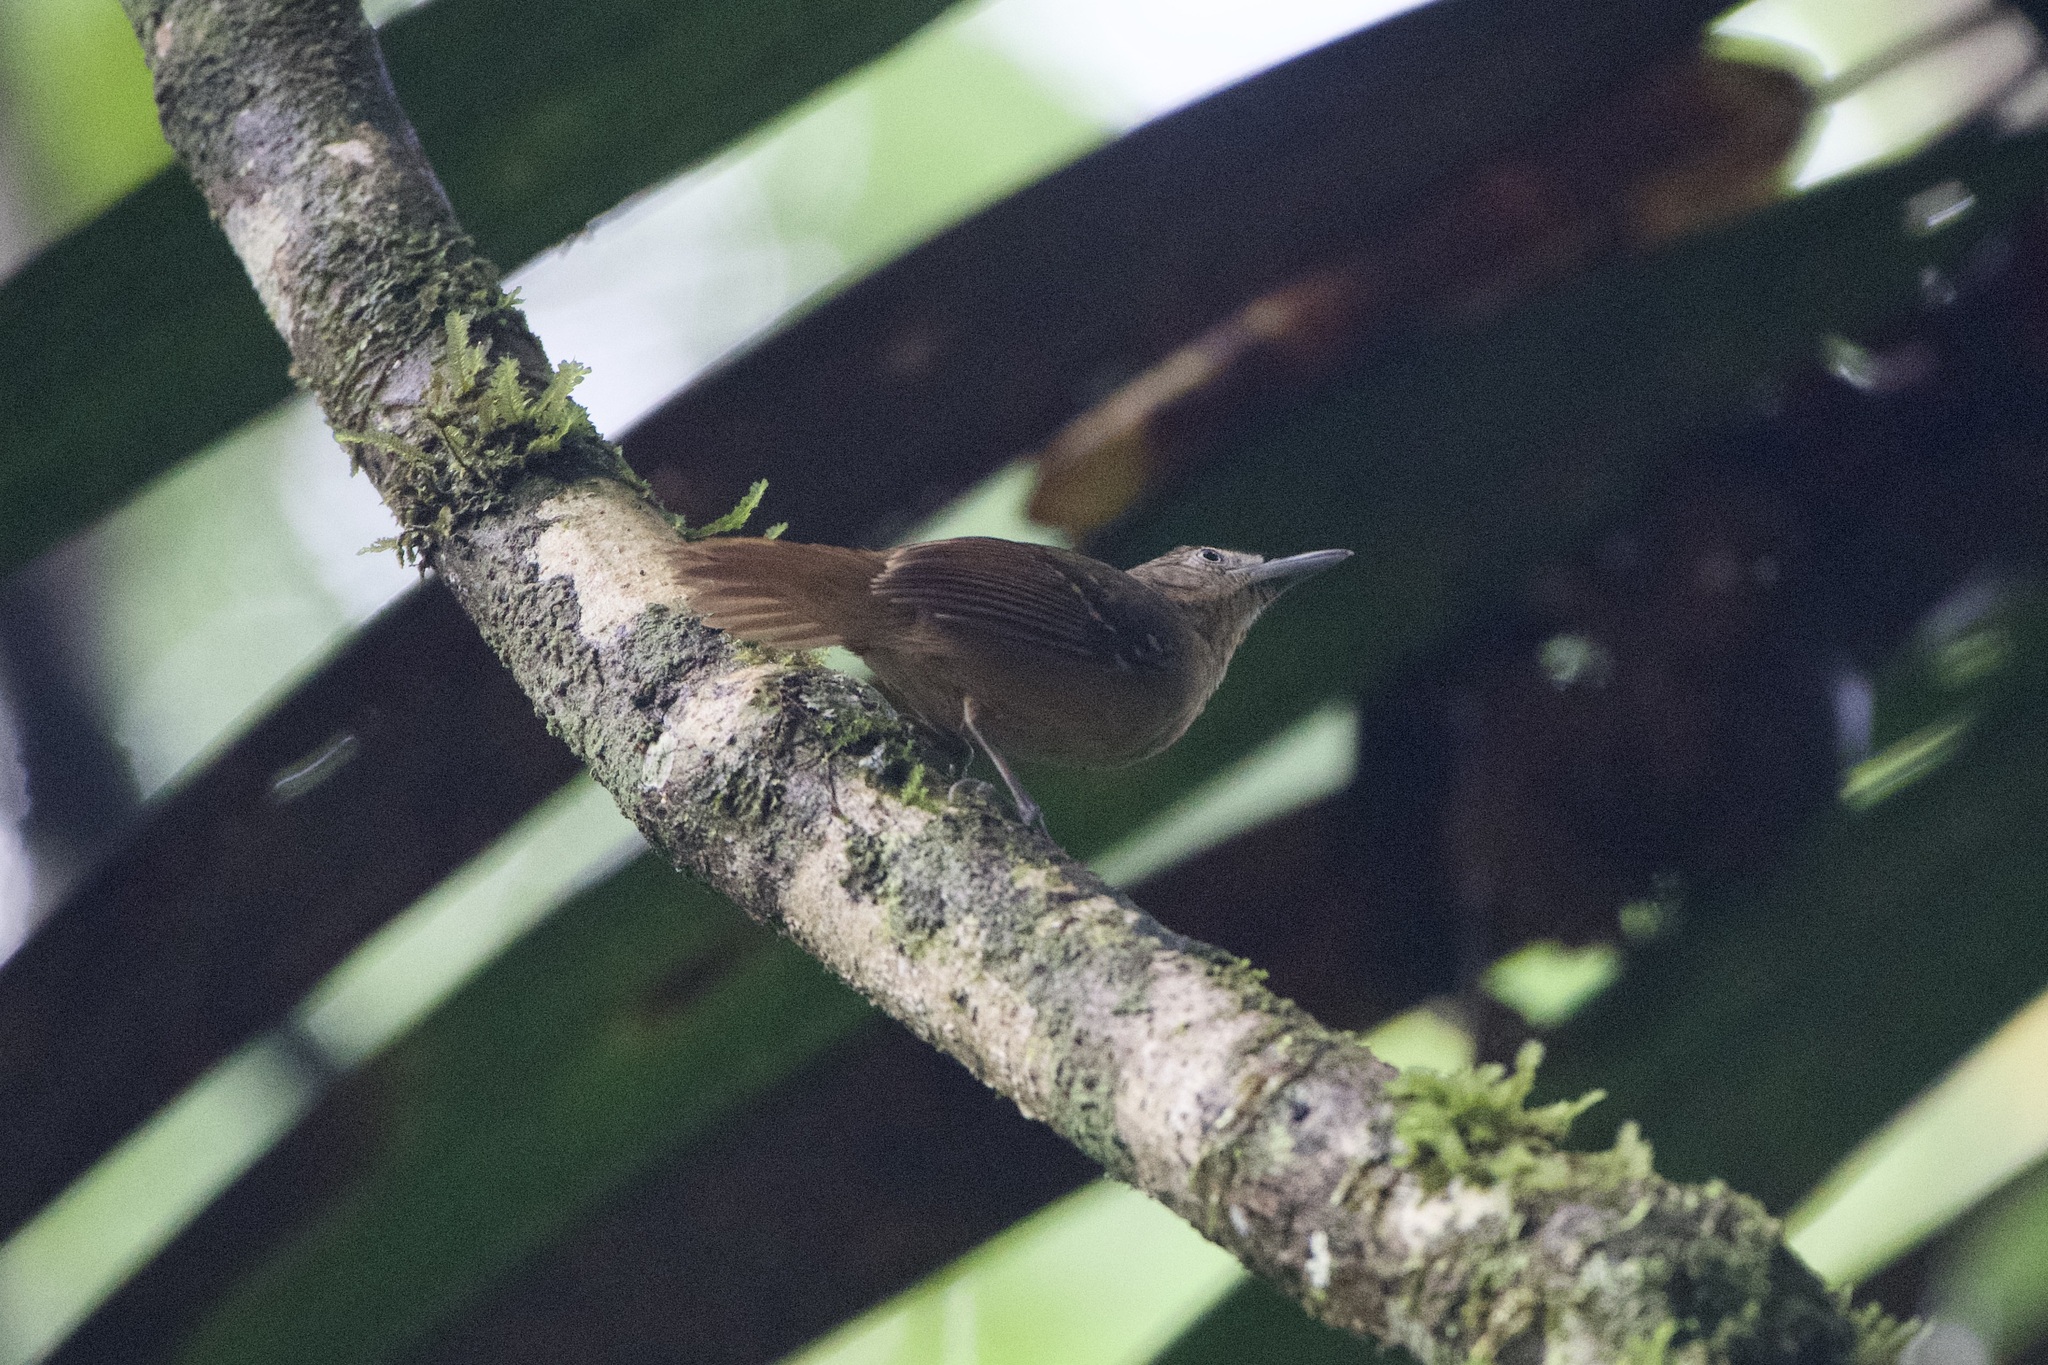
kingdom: Animalia
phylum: Chordata
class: Aves
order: Passeriformes
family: Thamnophilidae
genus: Epinecrophylla
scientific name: Epinecrophylla fulviventris
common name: Checker-throated antwren
